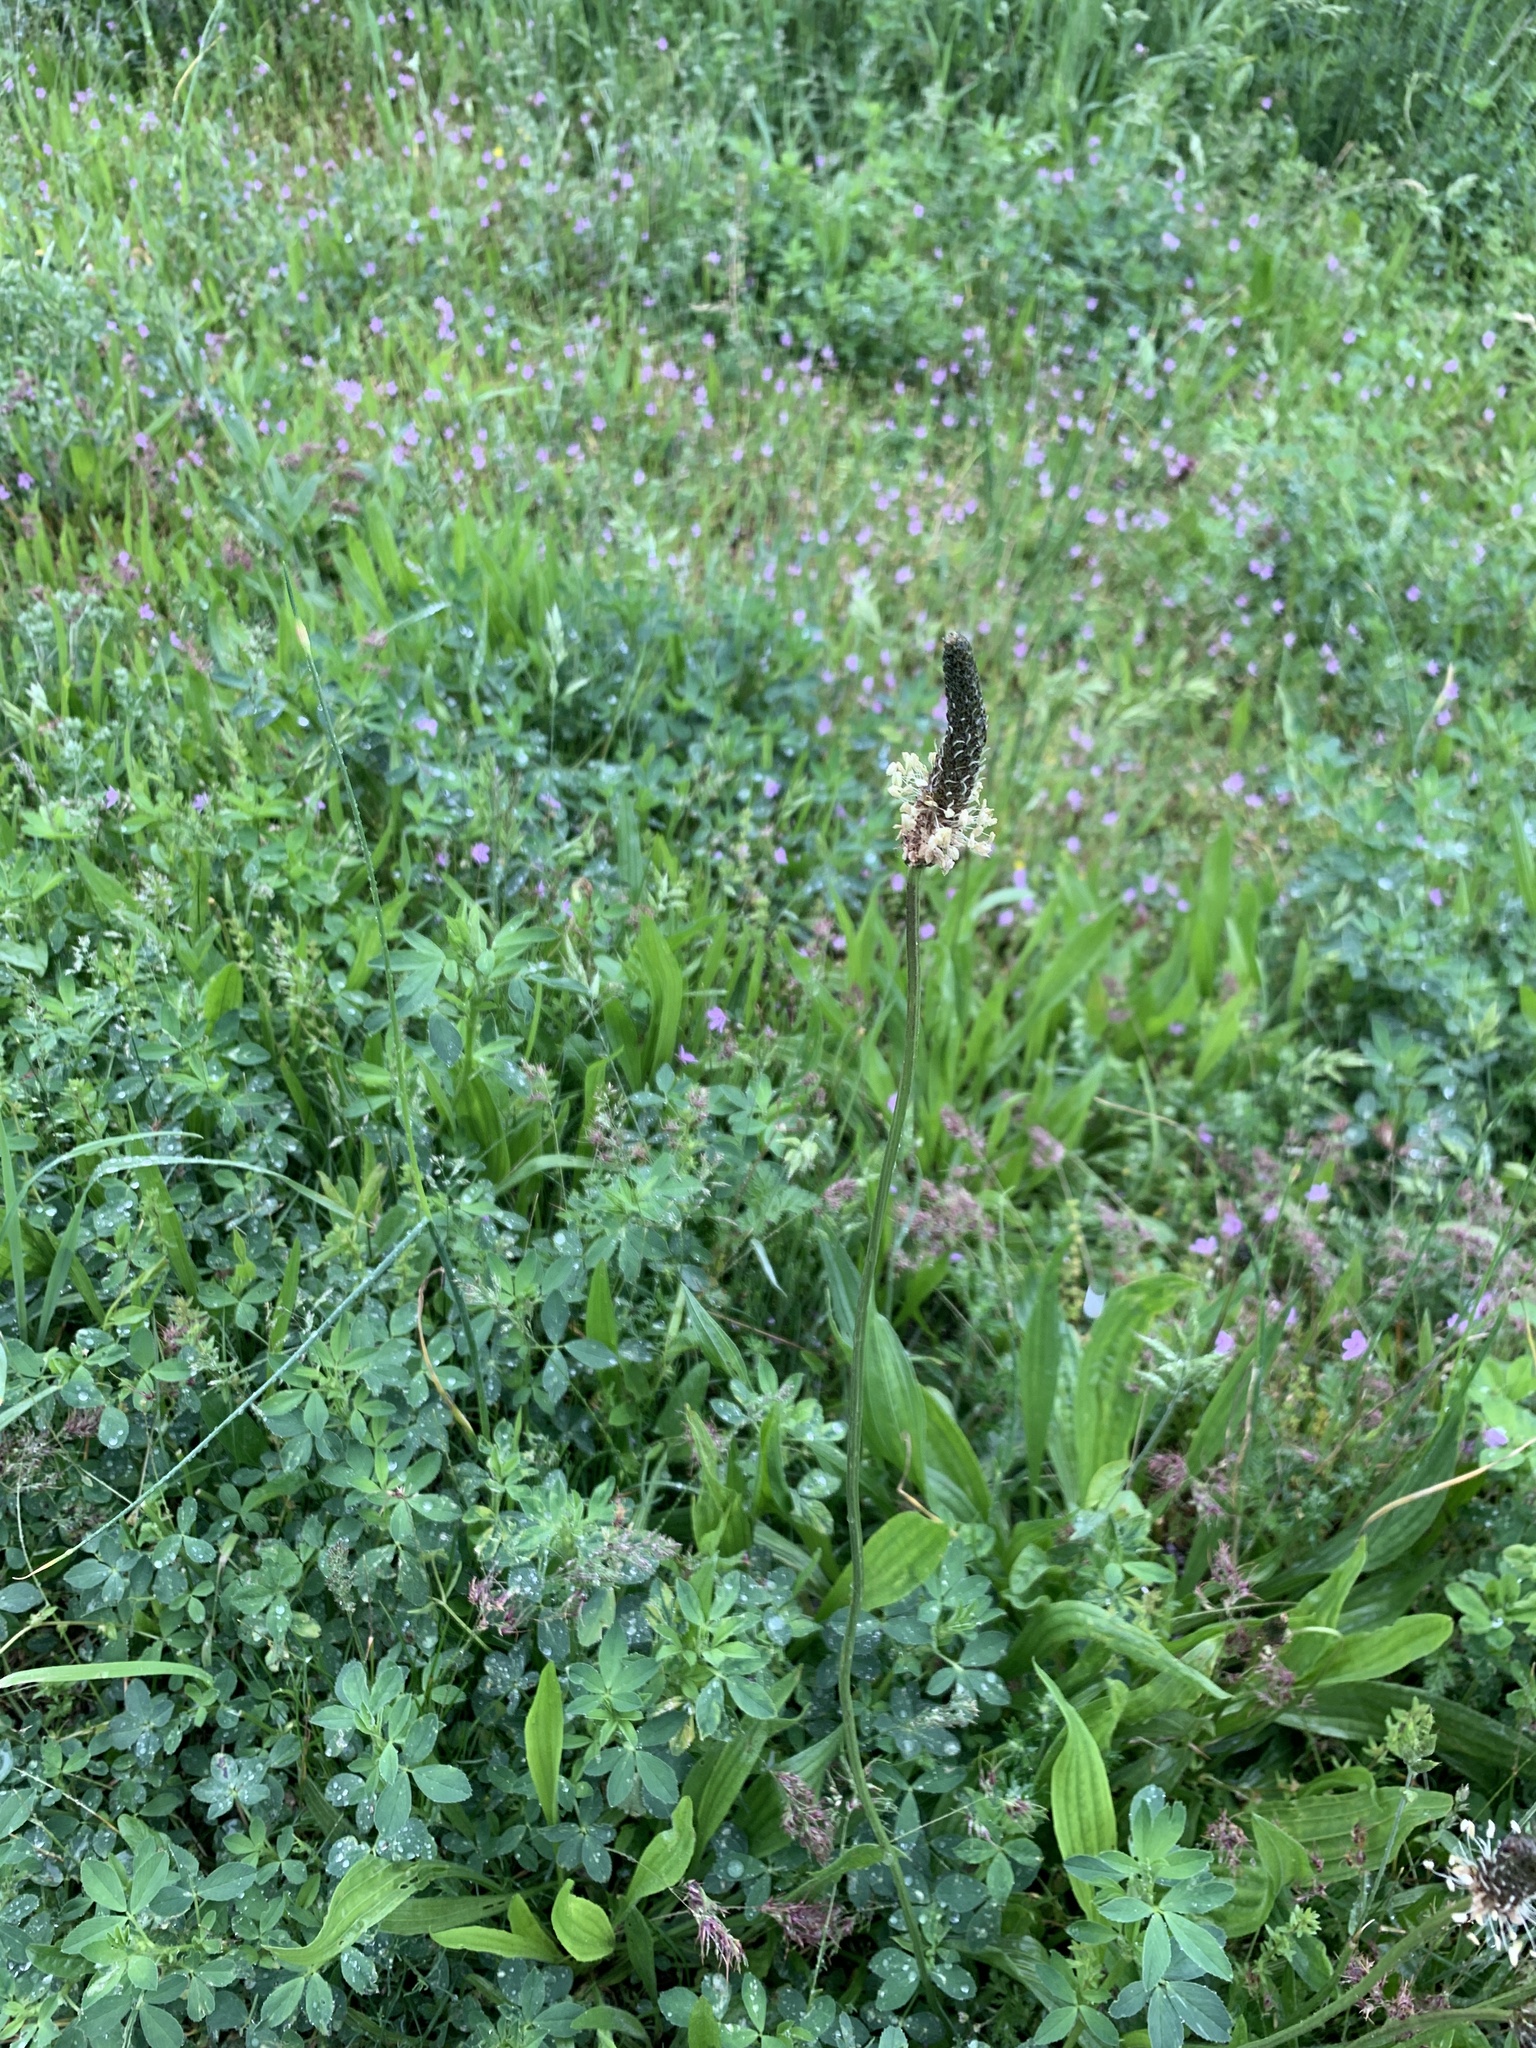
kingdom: Plantae
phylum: Tracheophyta
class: Magnoliopsida
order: Lamiales
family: Plantaginaceae
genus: Plantago
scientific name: Plantago lanceolata
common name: Ribwort plantain
